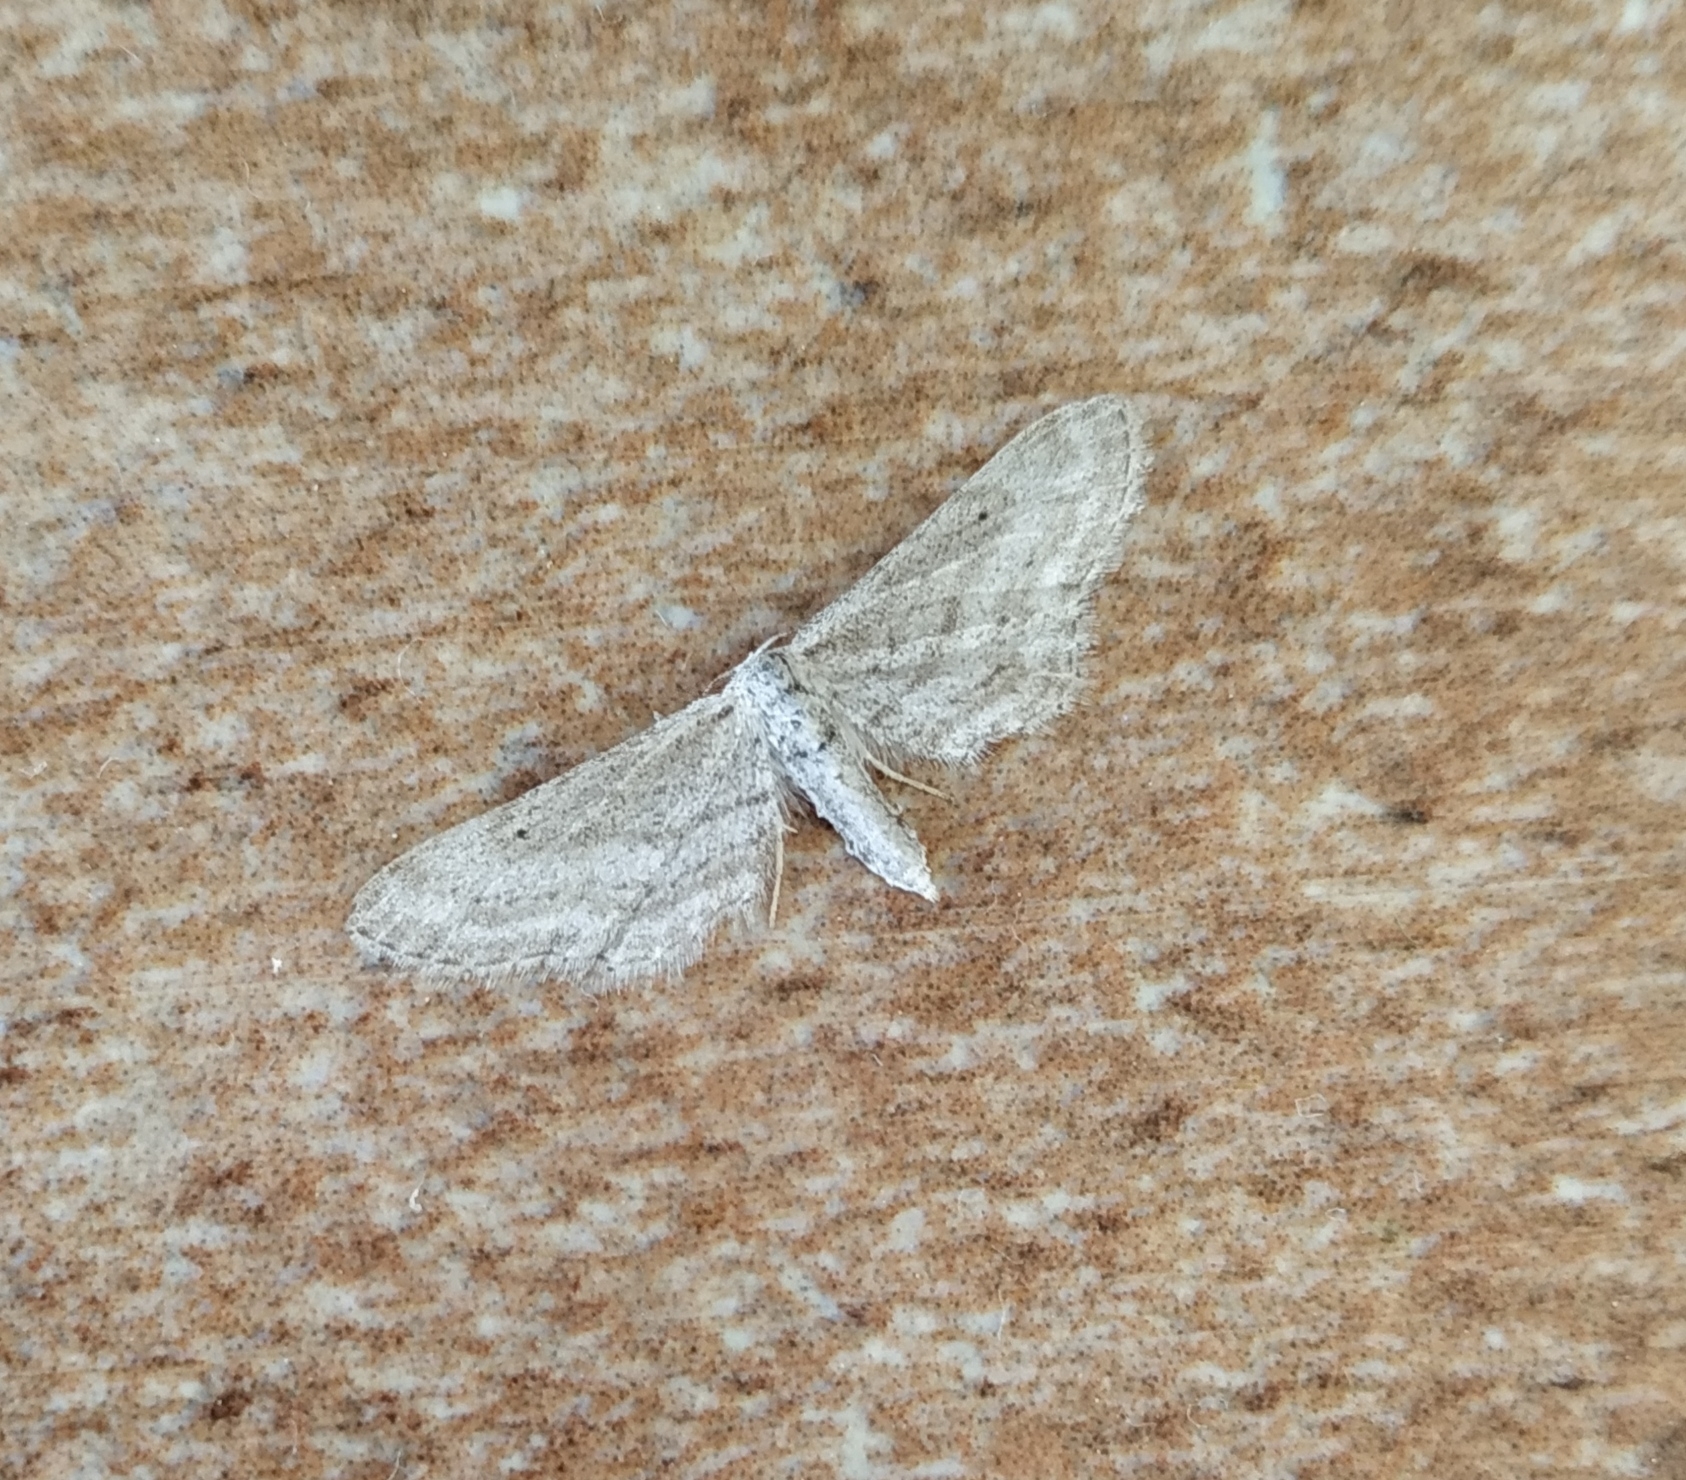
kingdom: Animalia
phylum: Arthropoda
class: Insecta
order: Lepidoptera
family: Geometridae
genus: Idaea
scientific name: Idaea longaria
